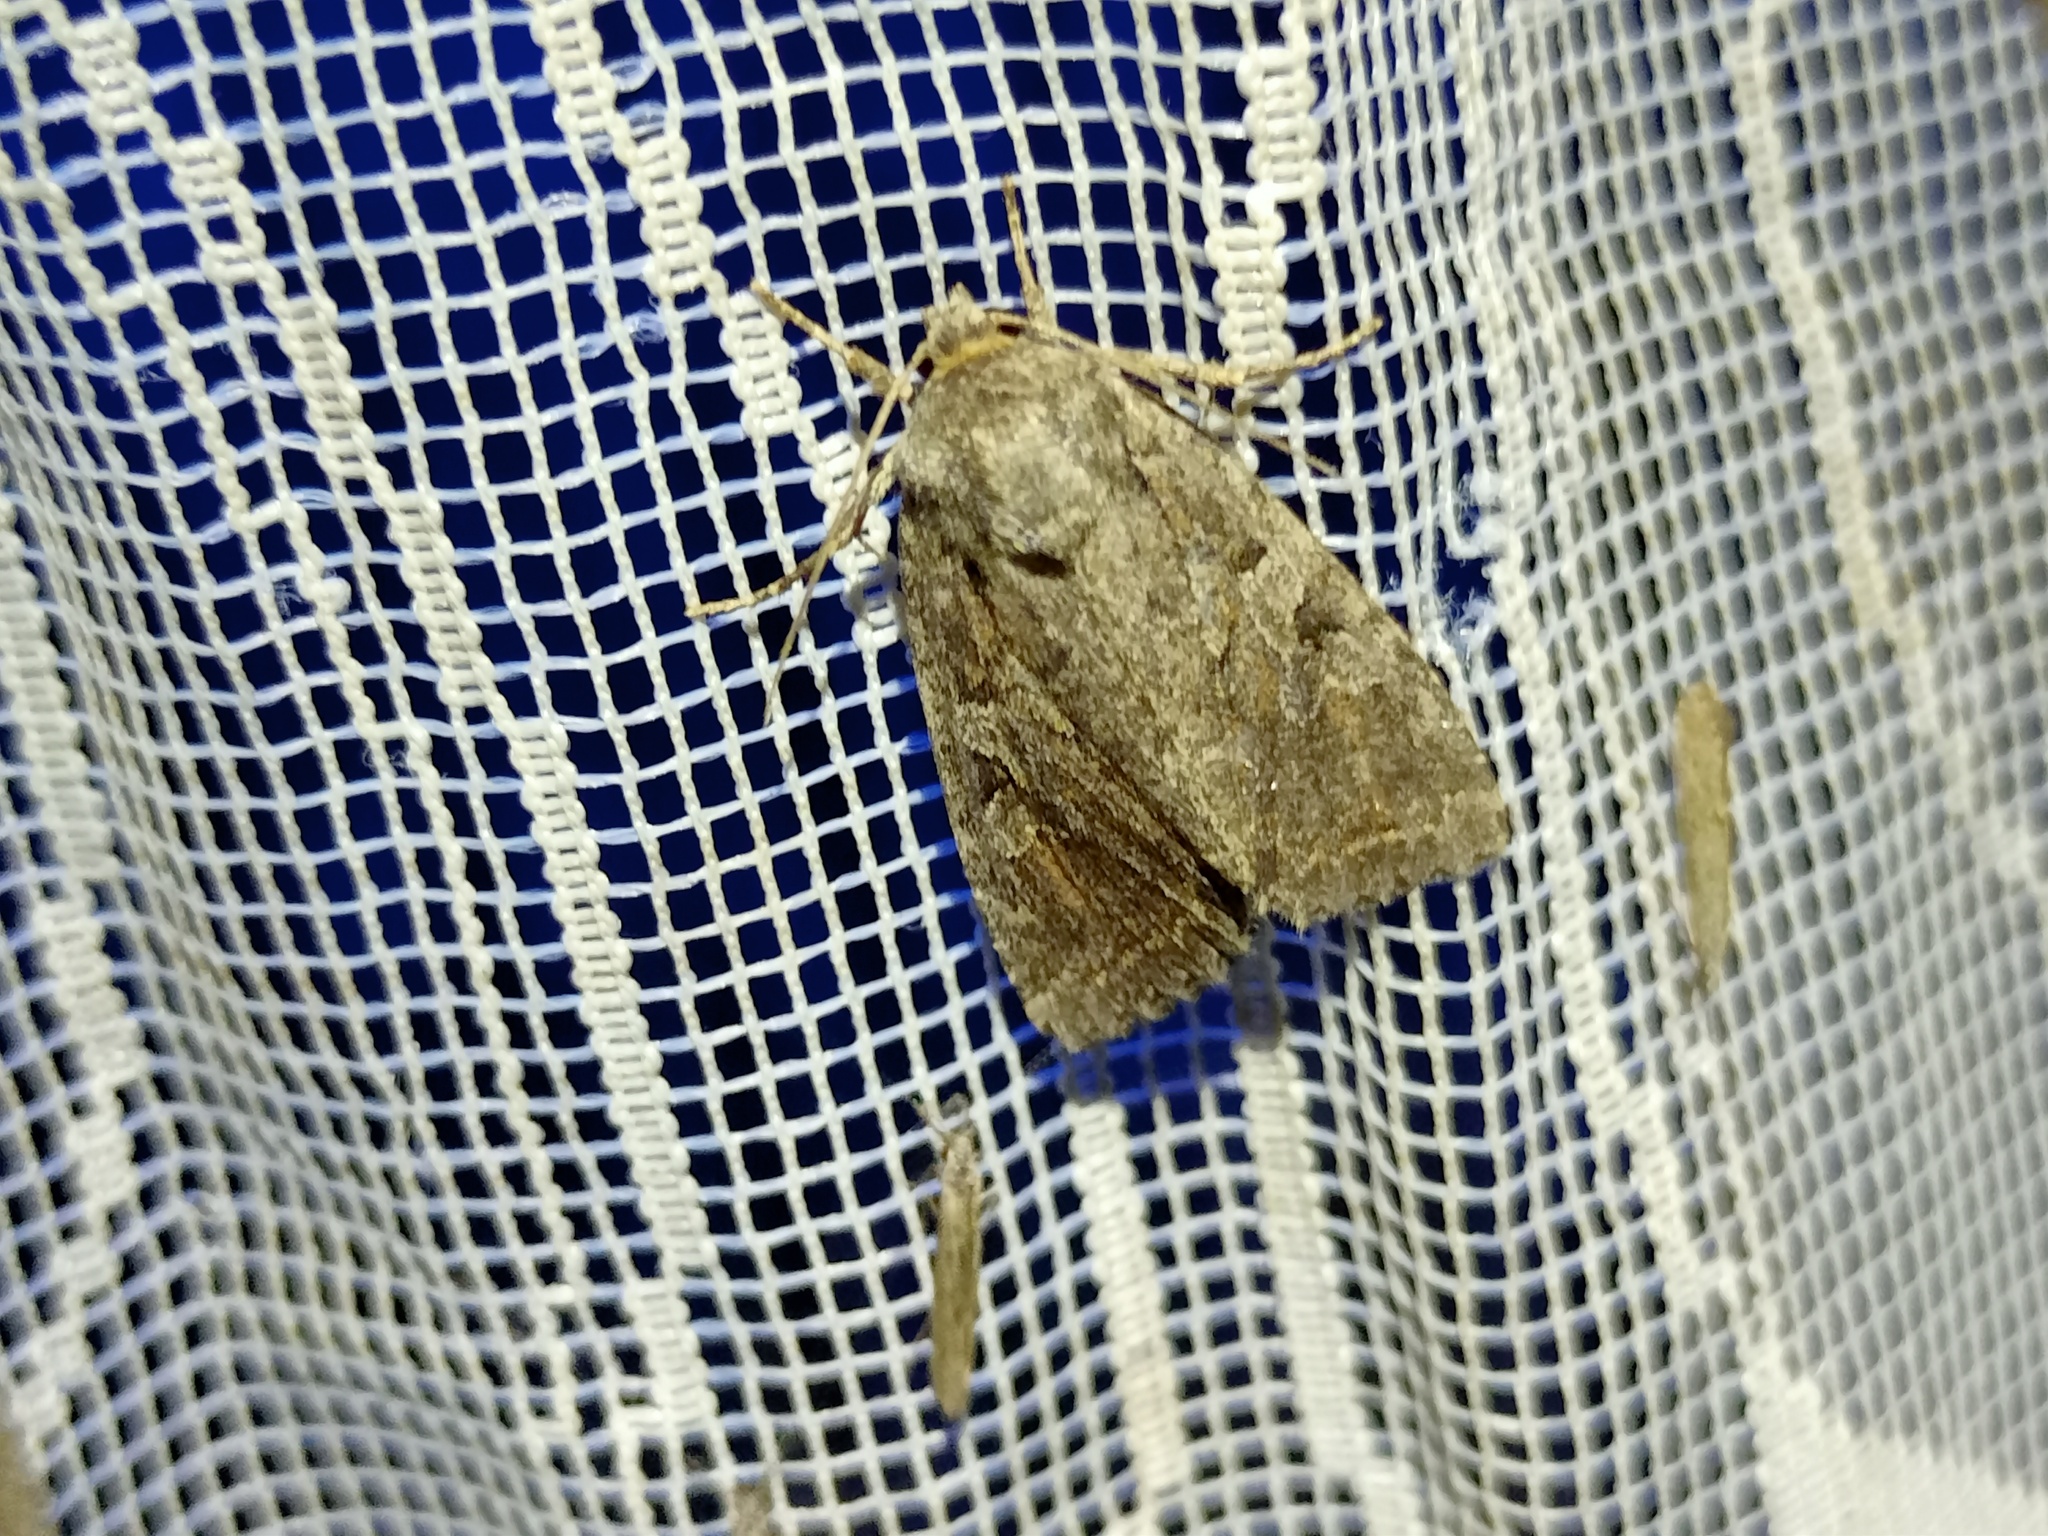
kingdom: Animalia
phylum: Arthropoda
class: Insecta
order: Lepidoptera
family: Noctuidae
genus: Apterogenum
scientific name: Apterogenum ypsillon
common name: Dingy shears
